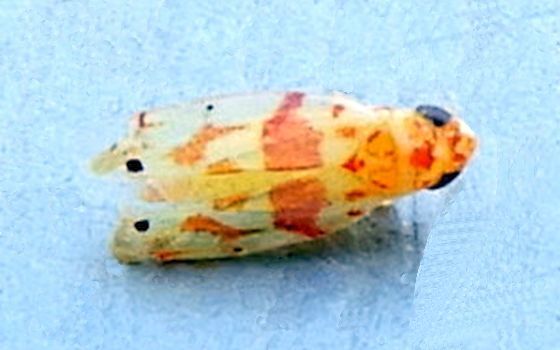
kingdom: Animalia
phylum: Arthropoda
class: Insecta
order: Hemiptera
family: Cicadellidae
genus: Eratoneura
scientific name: Eratoneura era
